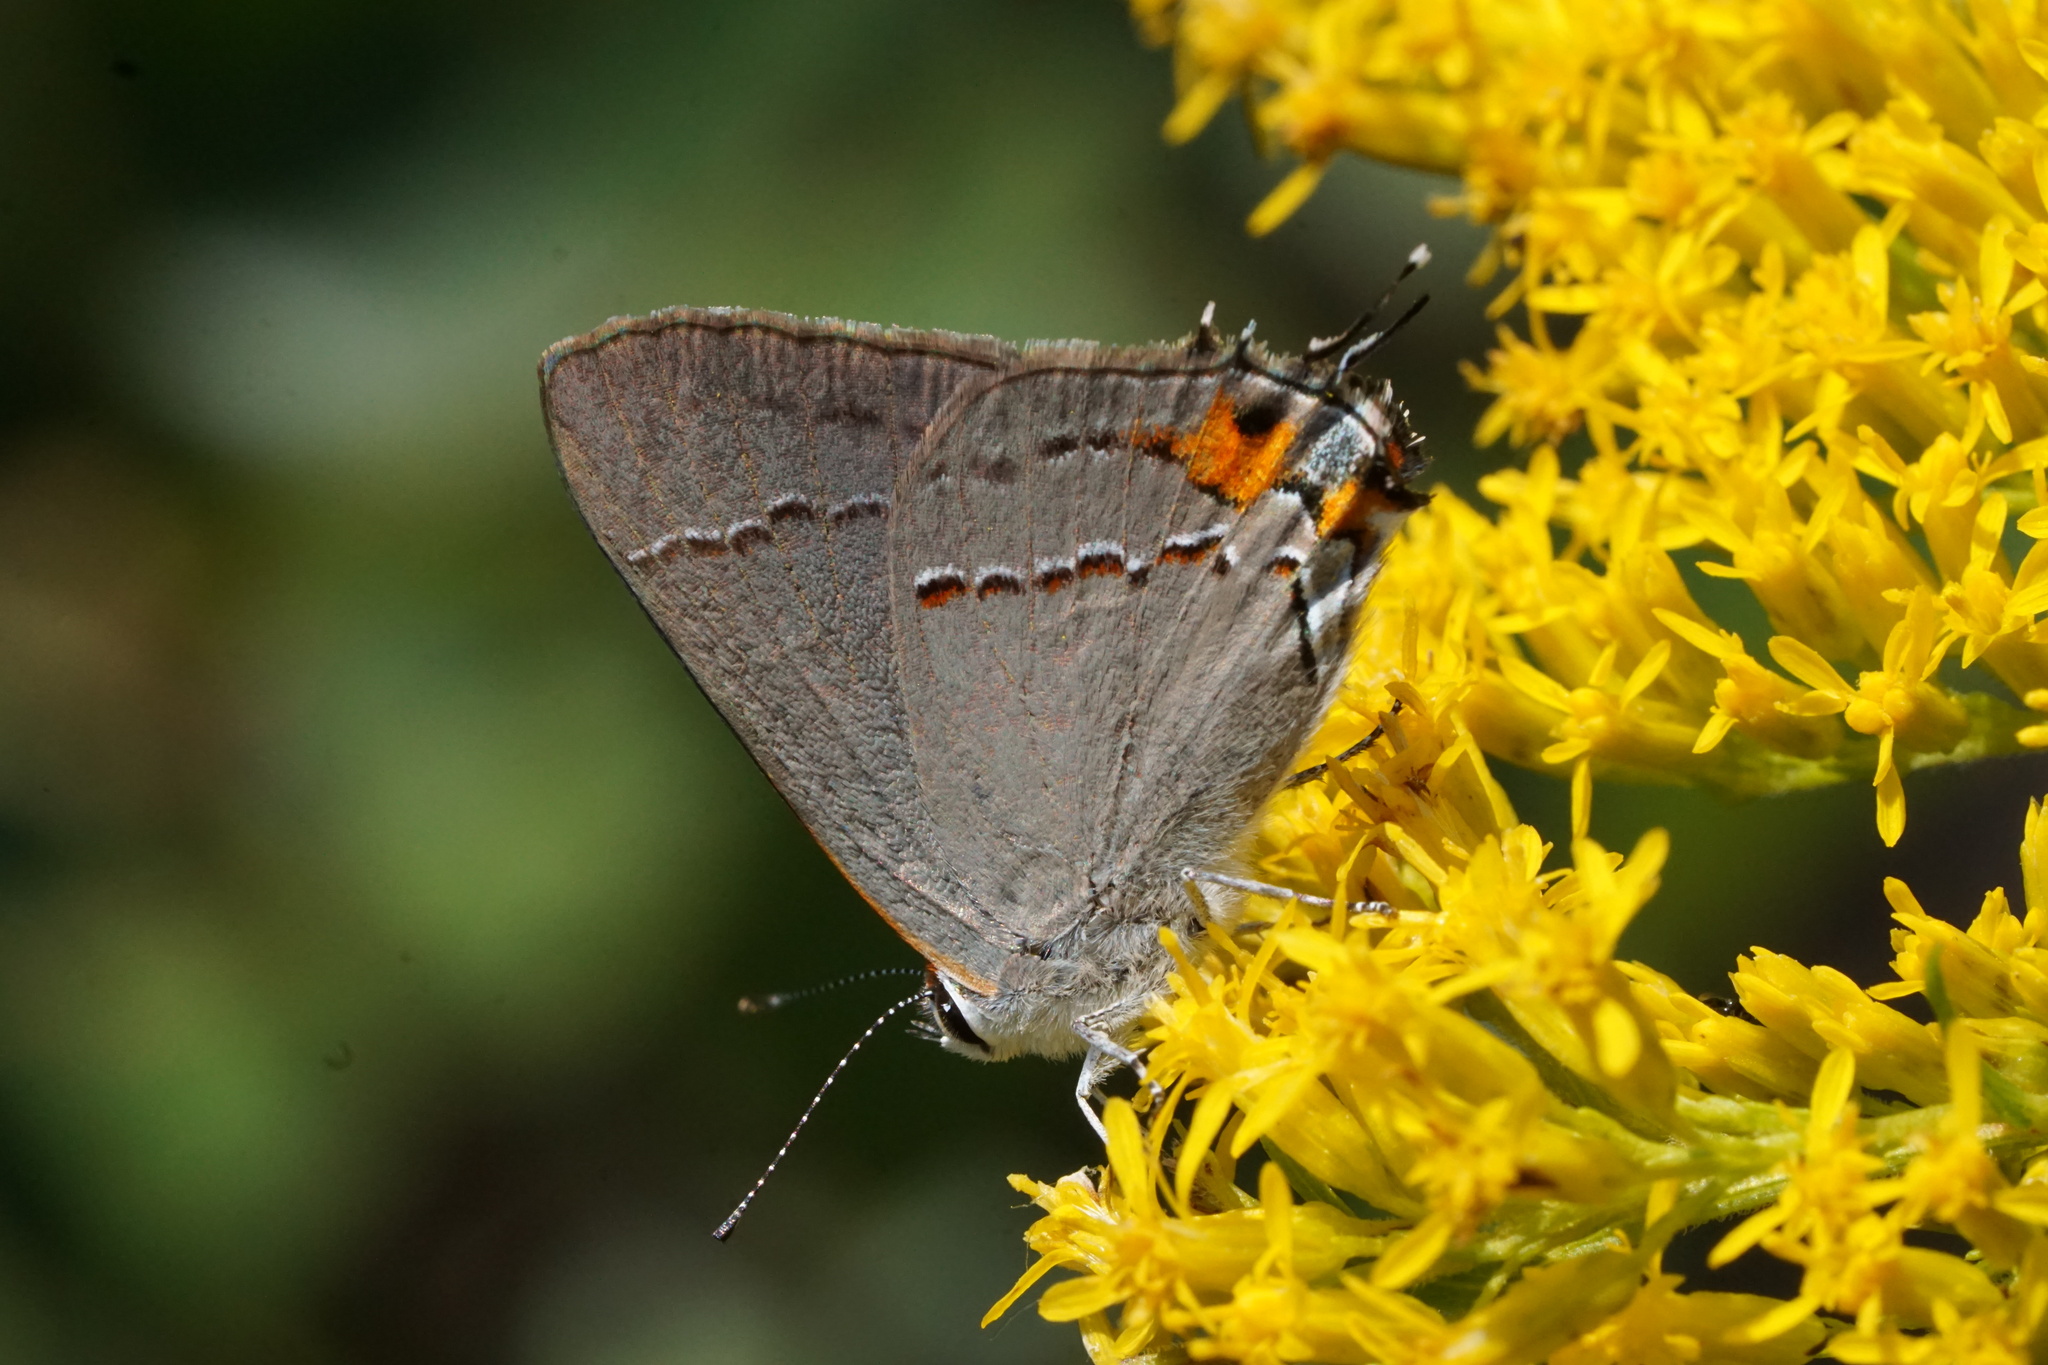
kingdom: Animalia
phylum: Arthropoda
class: Insecta
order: Lepidoptera
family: Lycaenidae
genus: Strymon
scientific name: Strymon melinus
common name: Gray hairstreak
